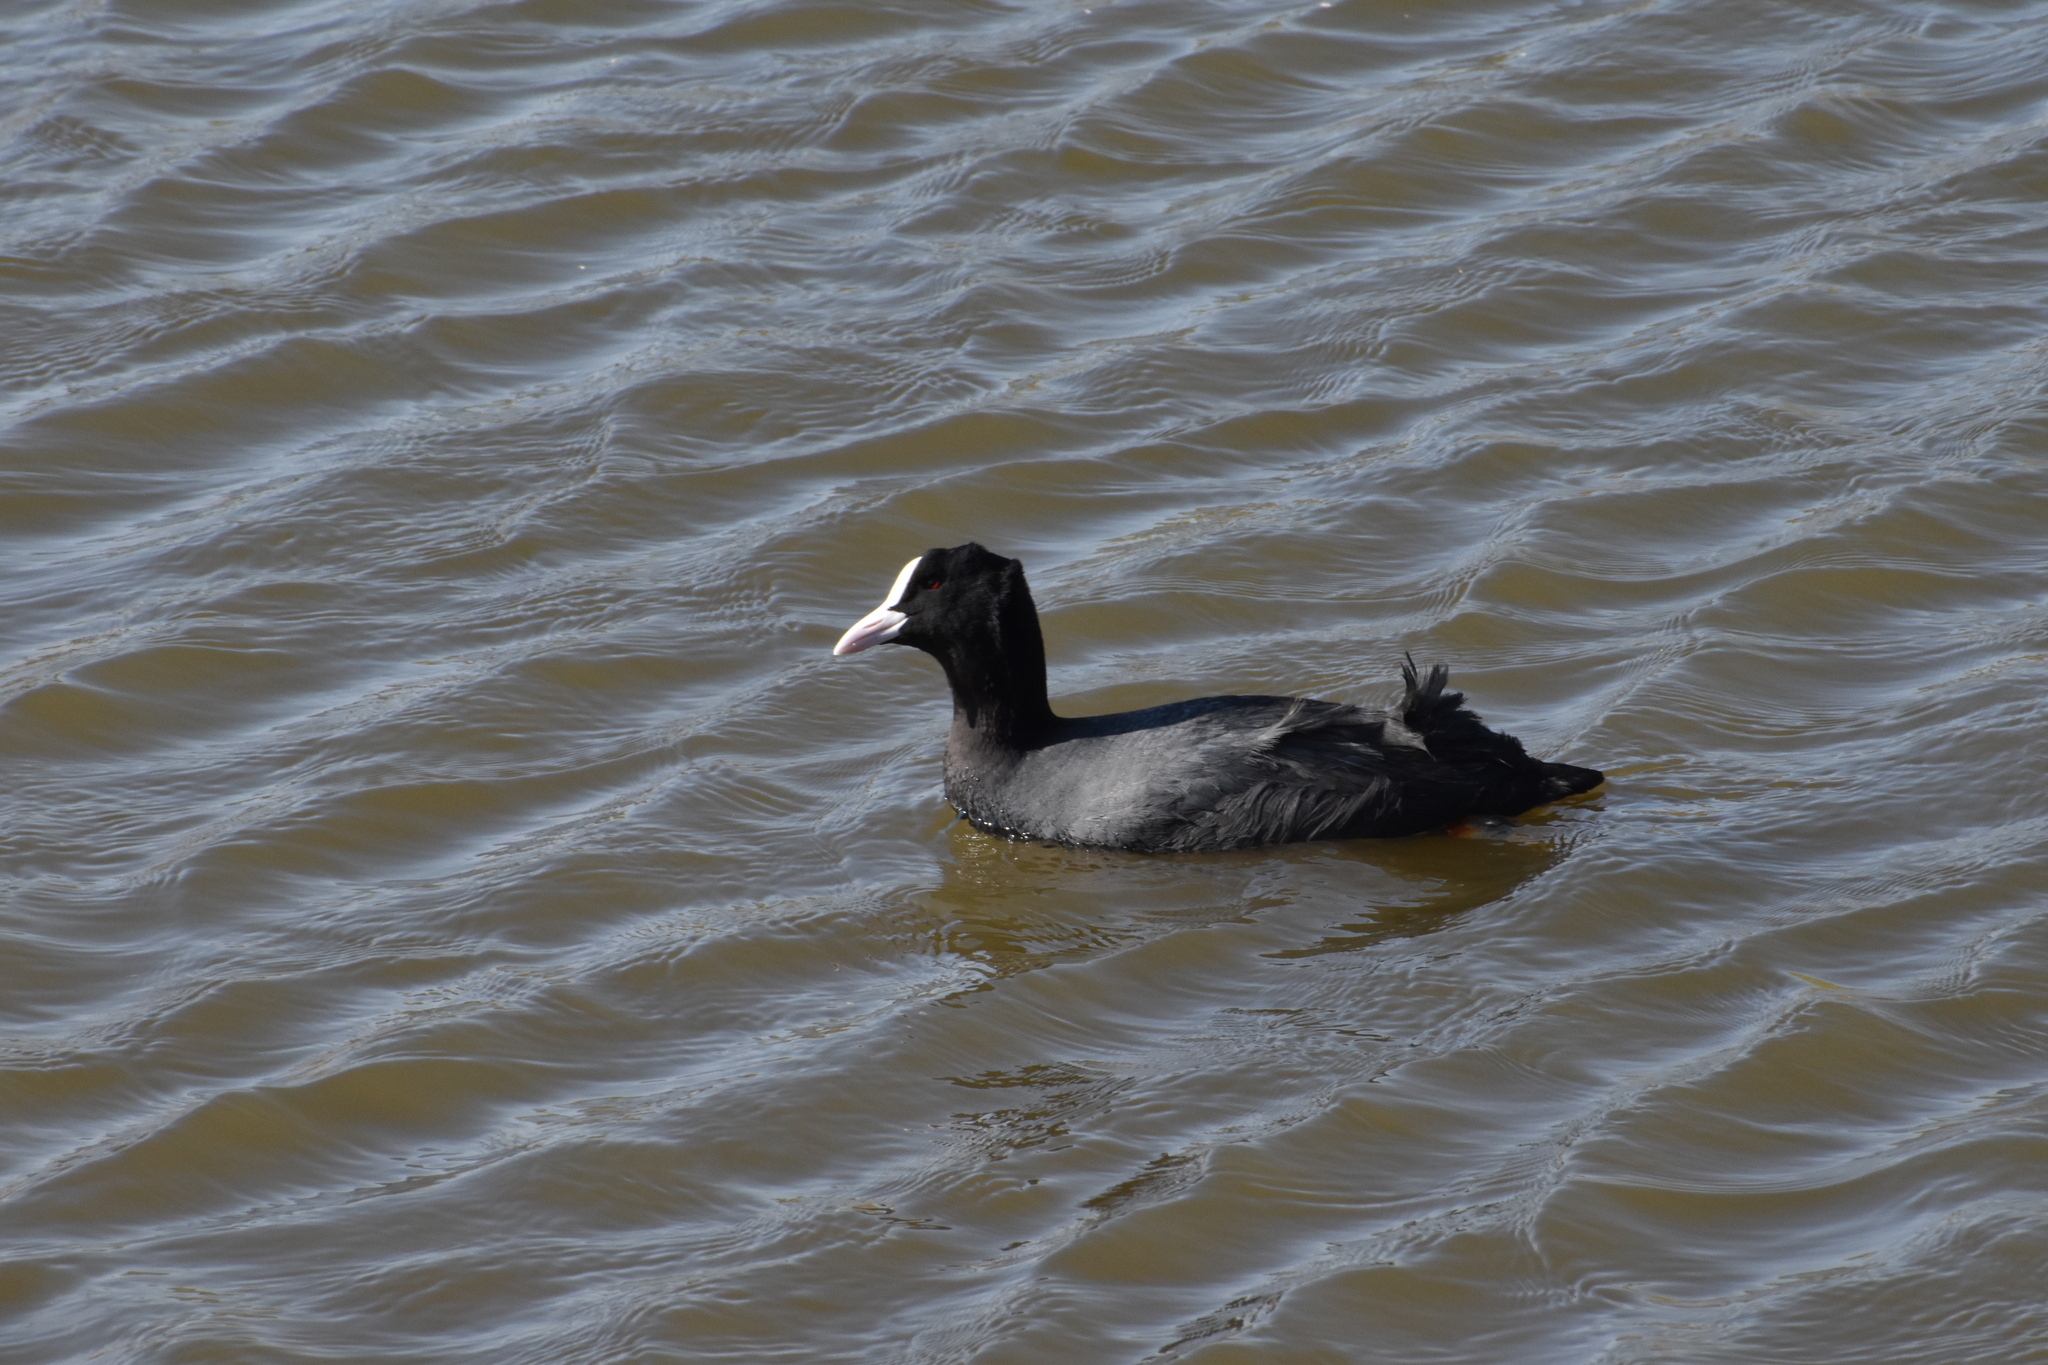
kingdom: Animalia
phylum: Chordata
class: Aves
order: Gruiformes
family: Rallidae
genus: Fulica
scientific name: Fulica atra
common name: Eurasian coot
